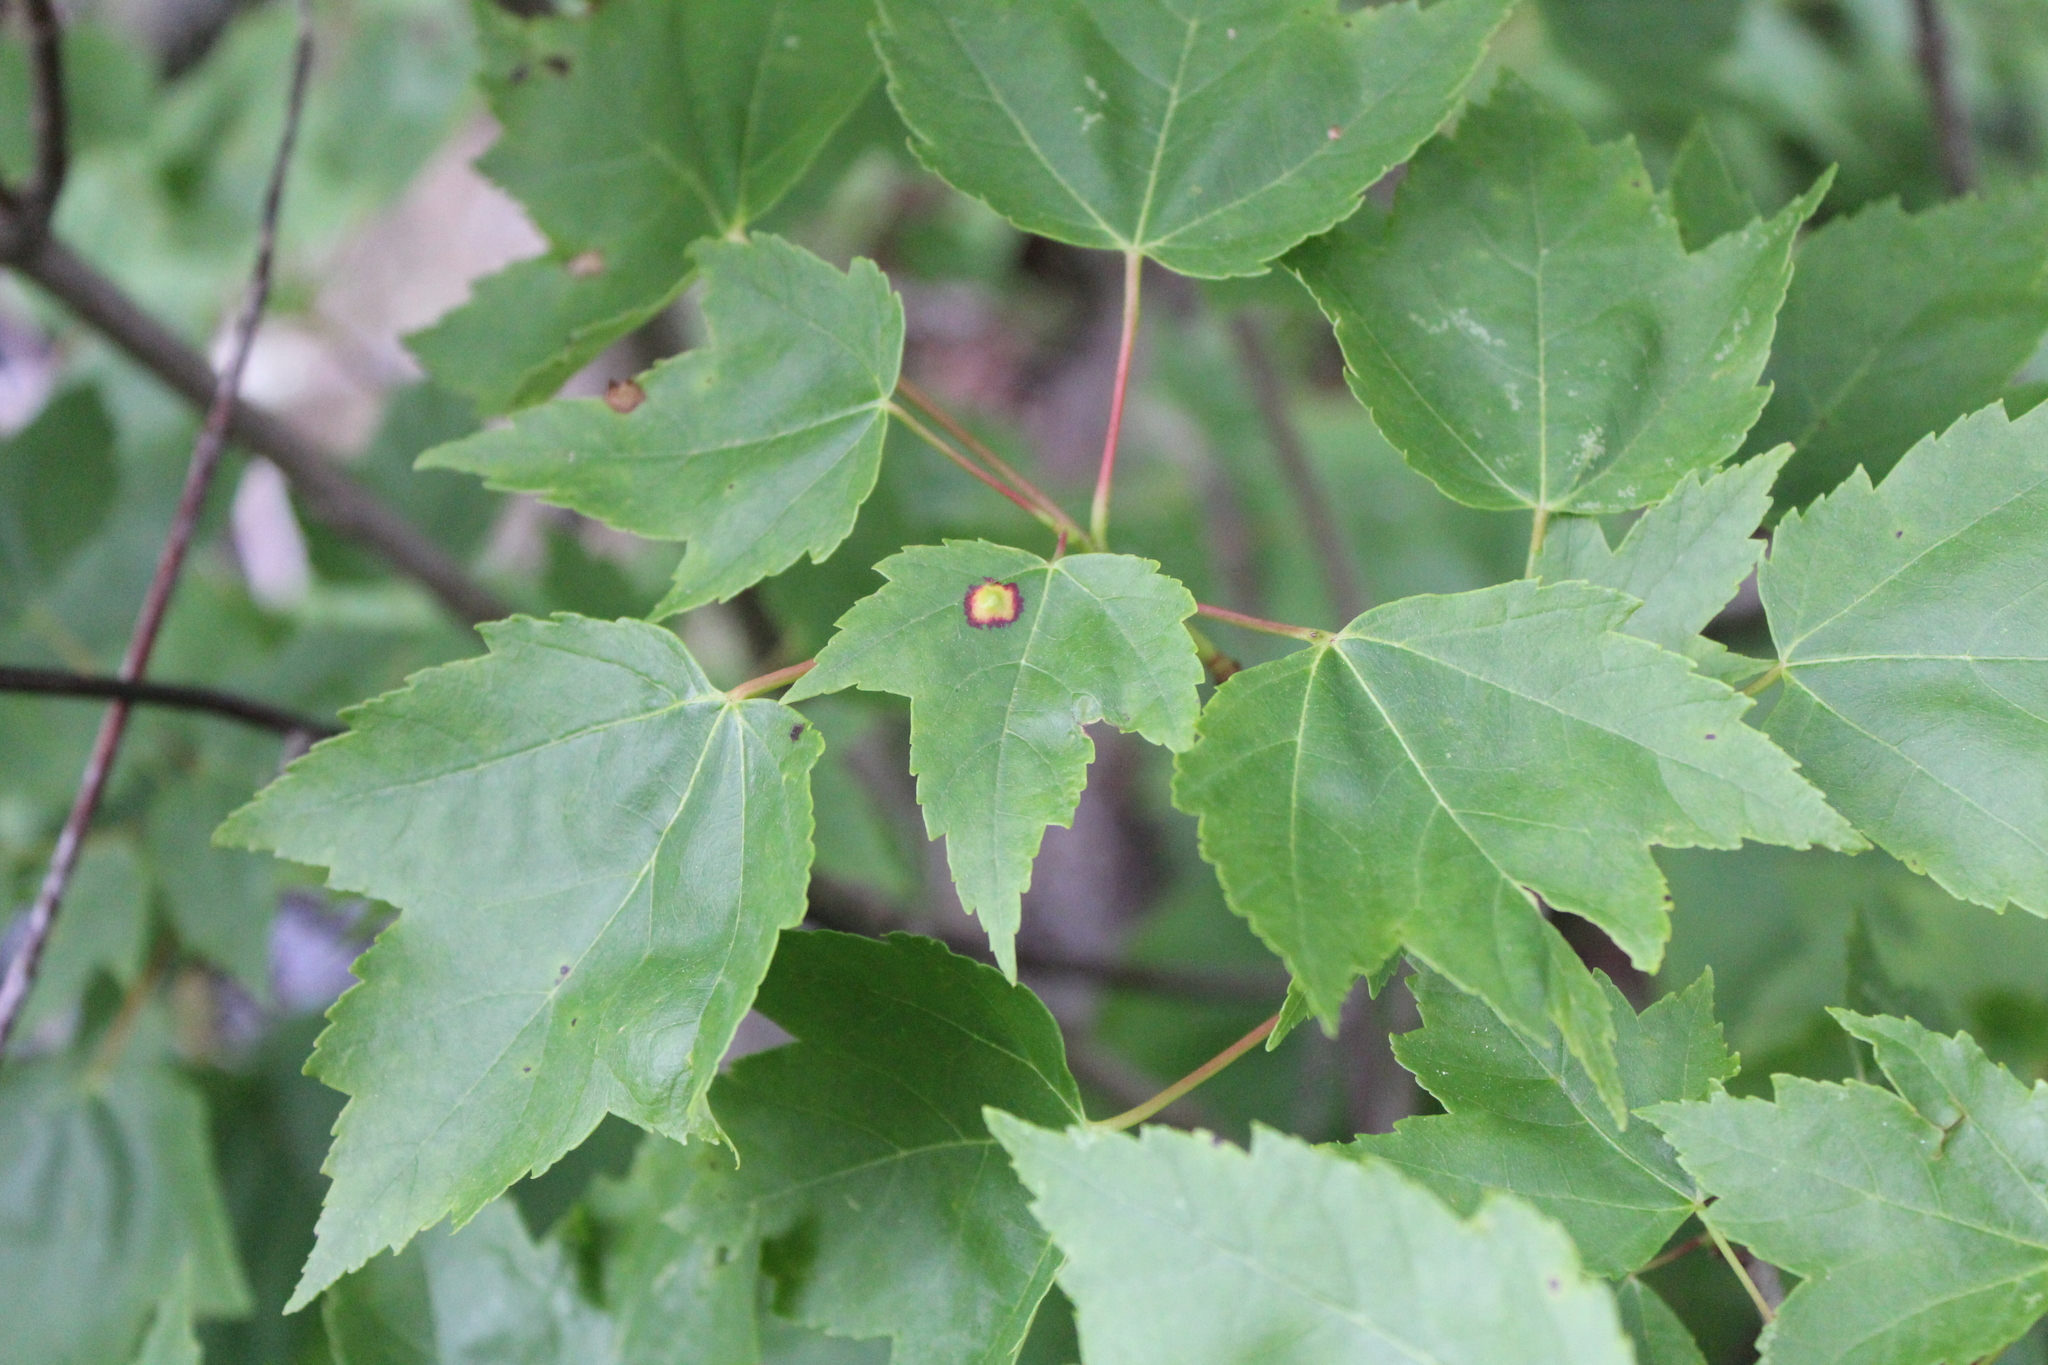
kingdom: Plantae
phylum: Tracheophyta
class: Magnoliopsida
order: Sapindales
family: Sapindaceae
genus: Acer
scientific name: Acer rubrum
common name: Red maple
